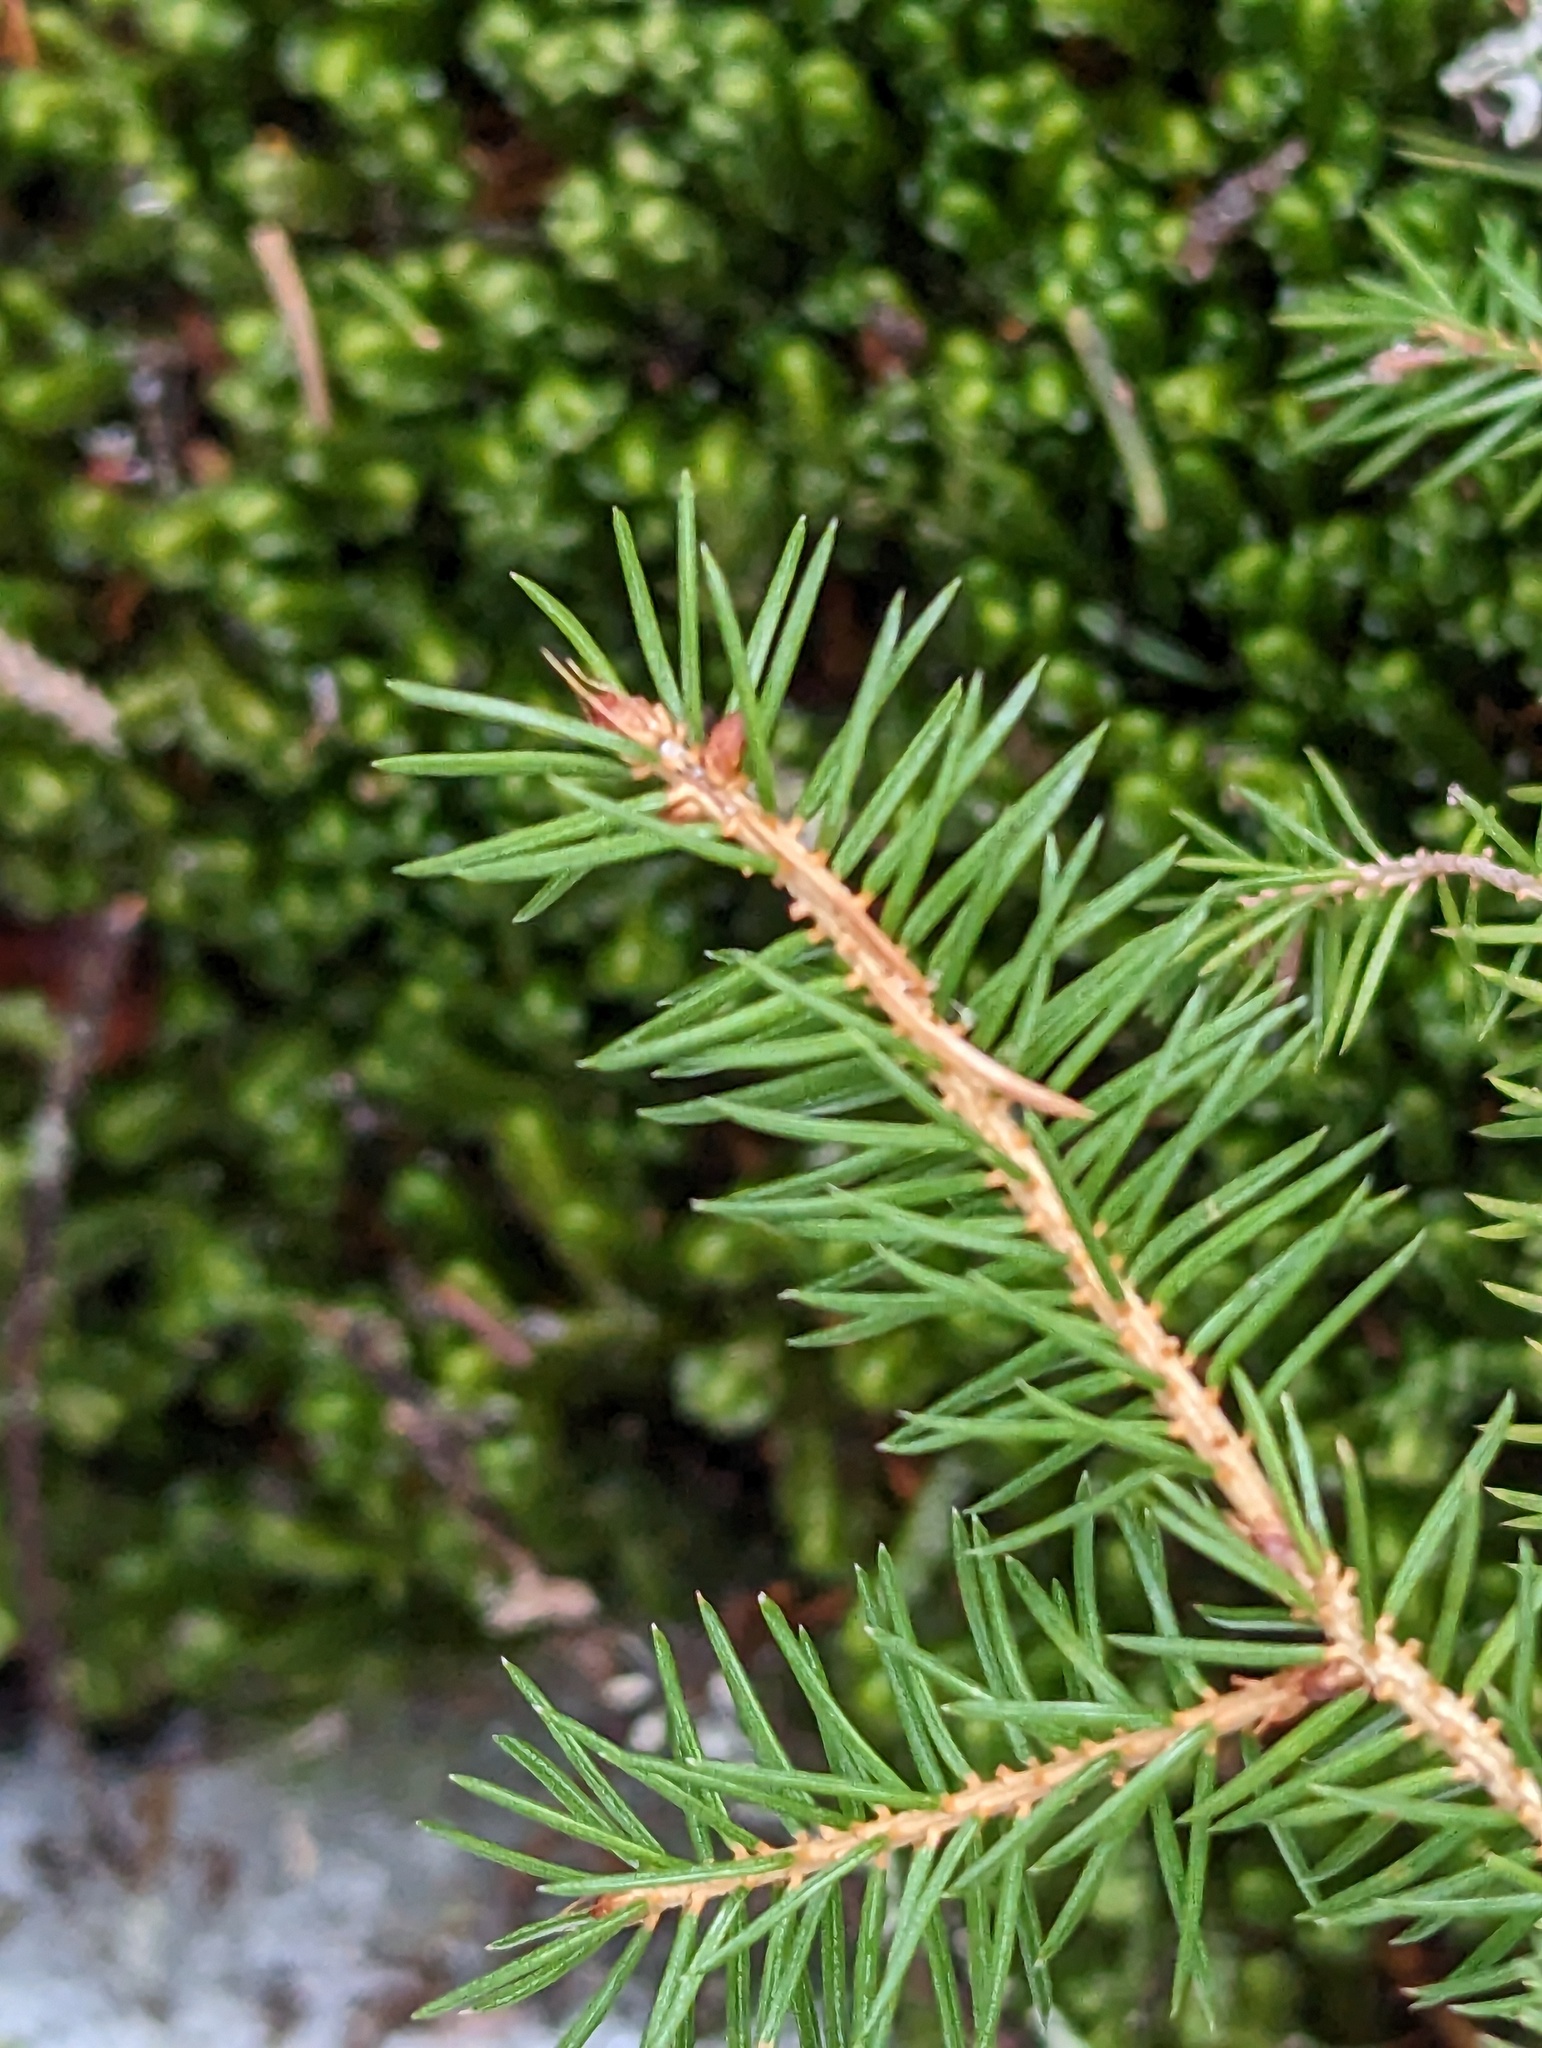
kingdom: Plantae
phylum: Tracheophyta
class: Pinopsida
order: Pinales
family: Pinaceae
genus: Picea
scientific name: Picea rubens
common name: Red spruce
